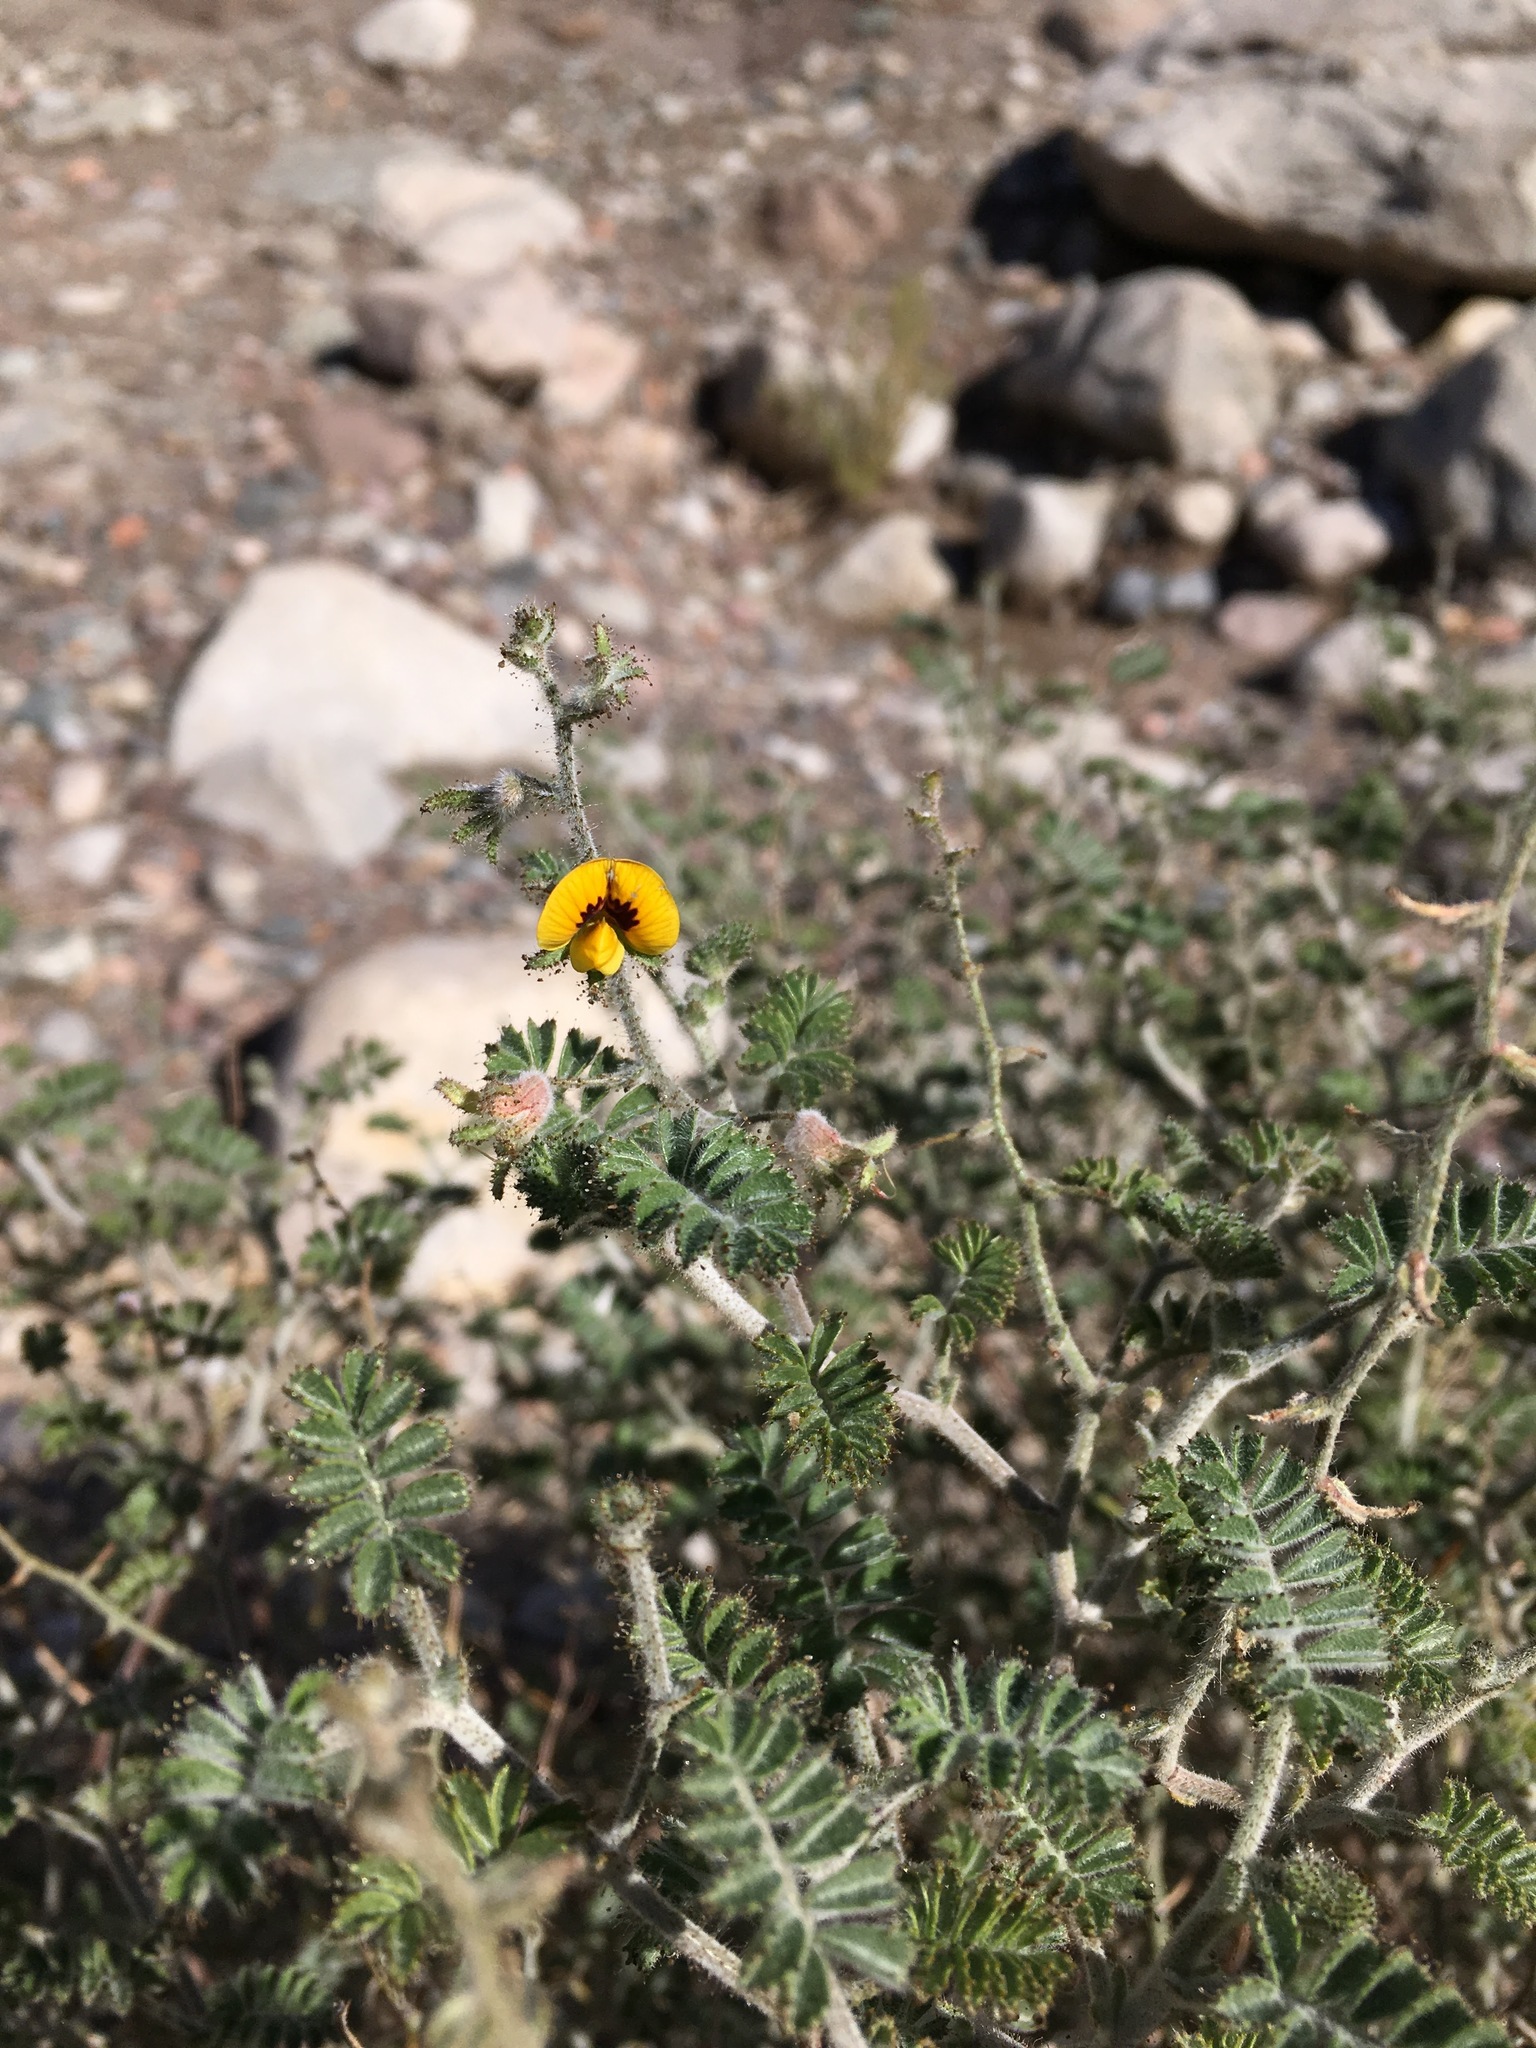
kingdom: Plantae
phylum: Tracheophyta
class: Magnoliopsida
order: Fabales
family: Fabaceae
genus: Adesmia
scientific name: Adesmia monosperma
